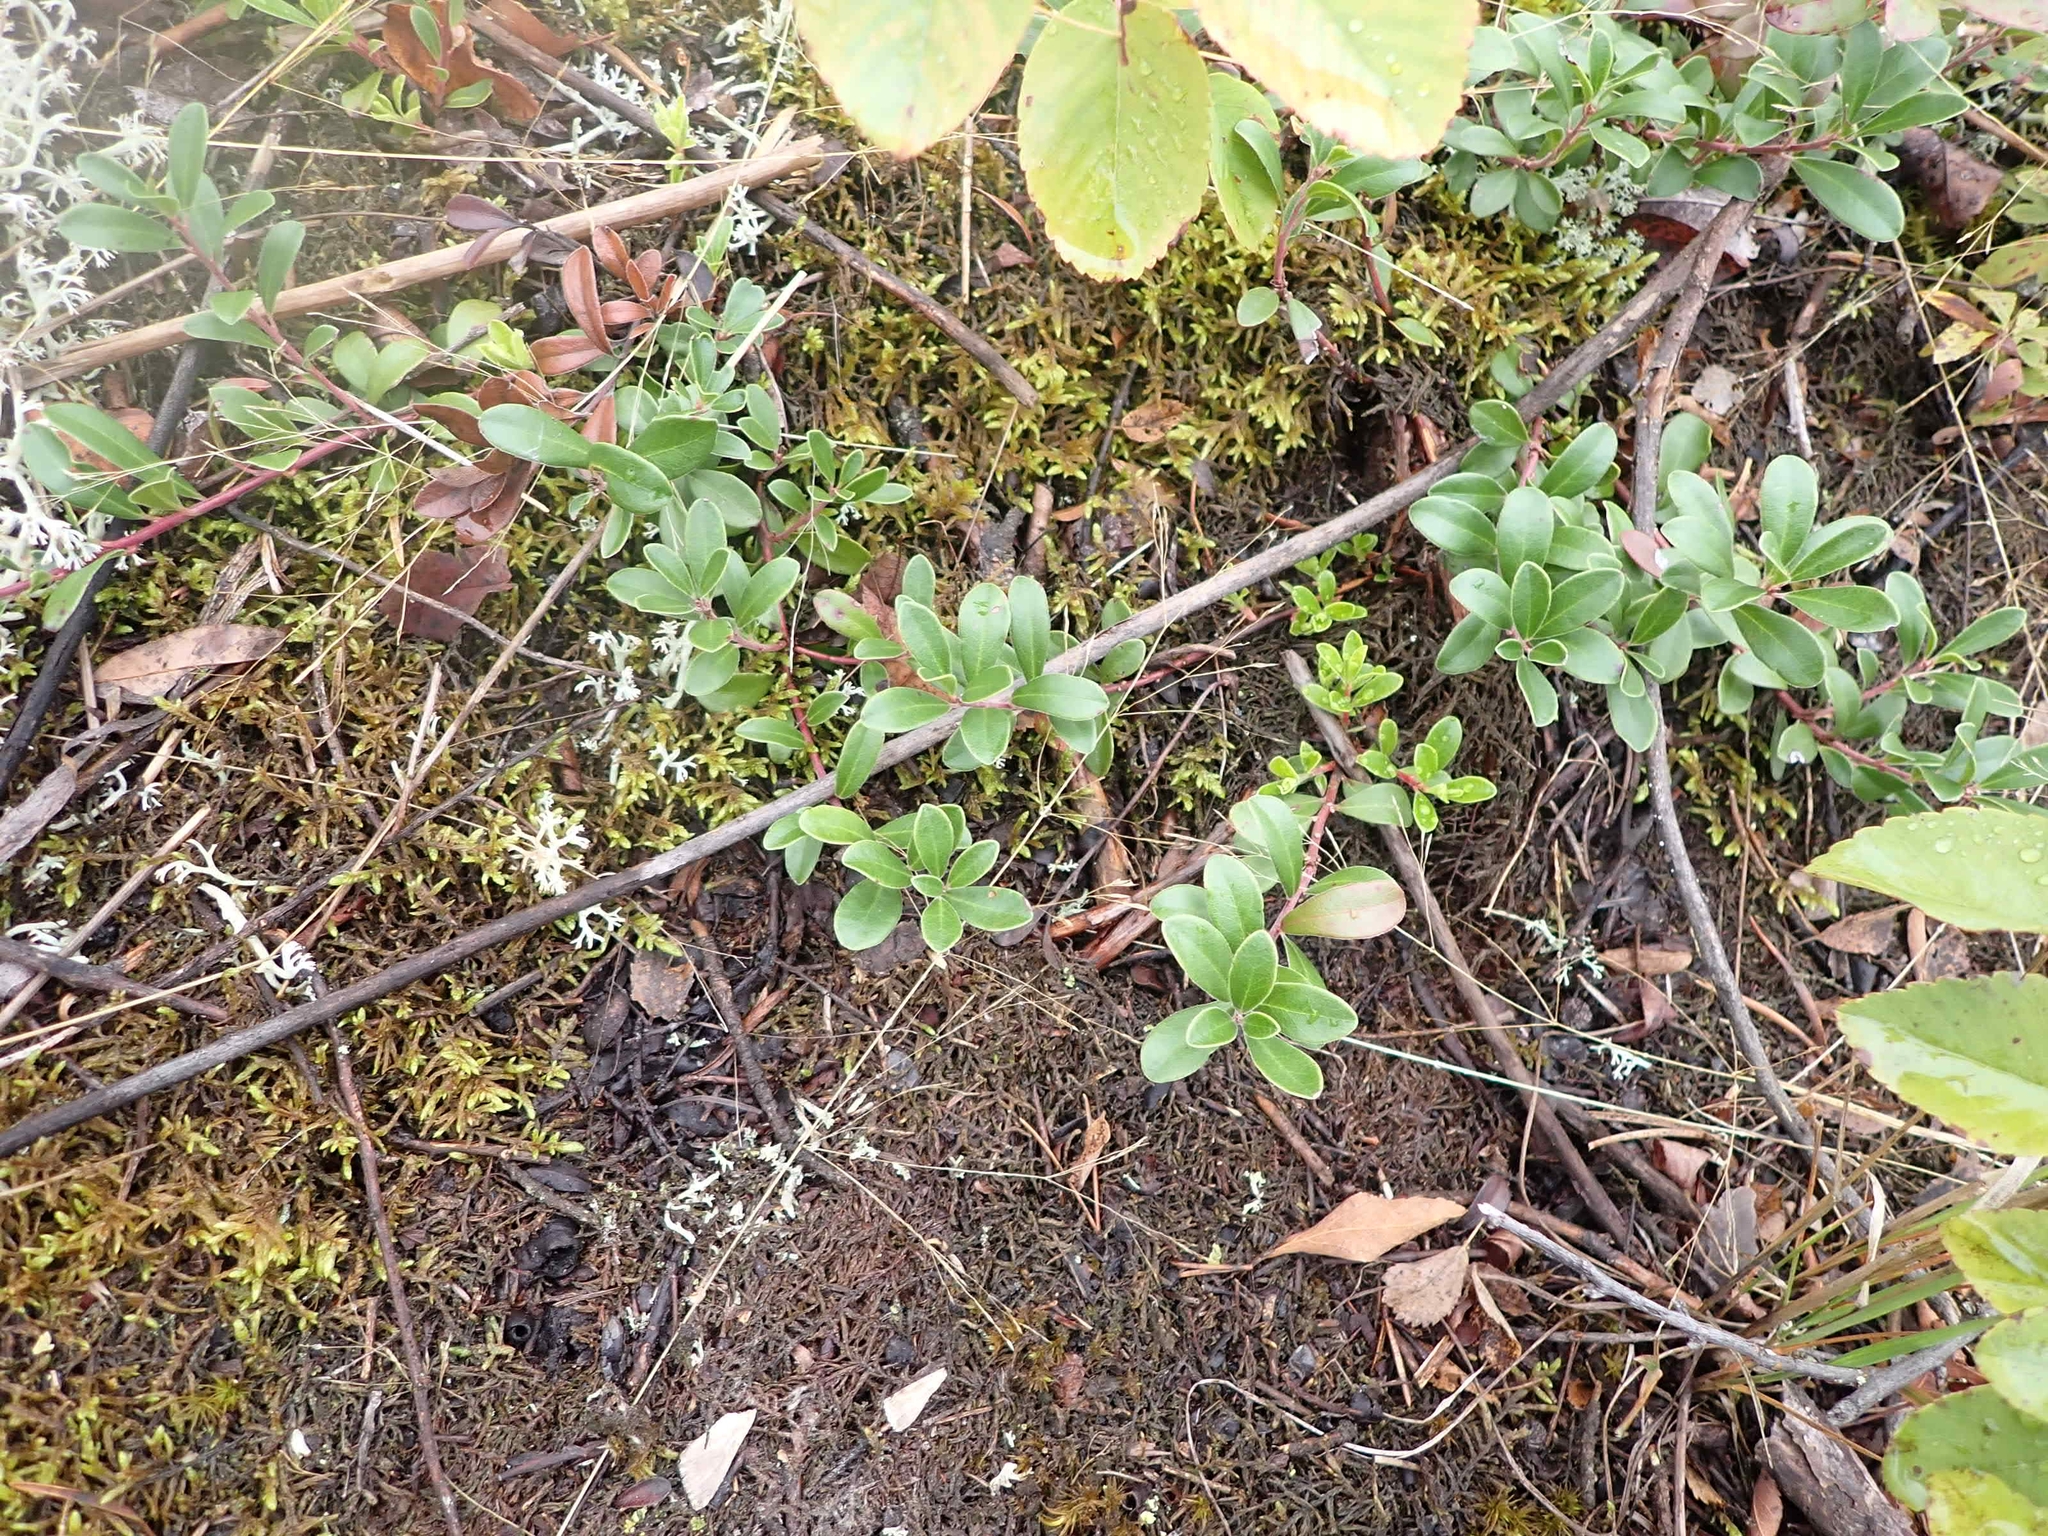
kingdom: Plantae
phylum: Tracheophyta
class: Magnoliopsida
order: Ericales
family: Ericaceae
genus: Arctostaphylos
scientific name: Arctostaphylos uva-ursi
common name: Bearberry
